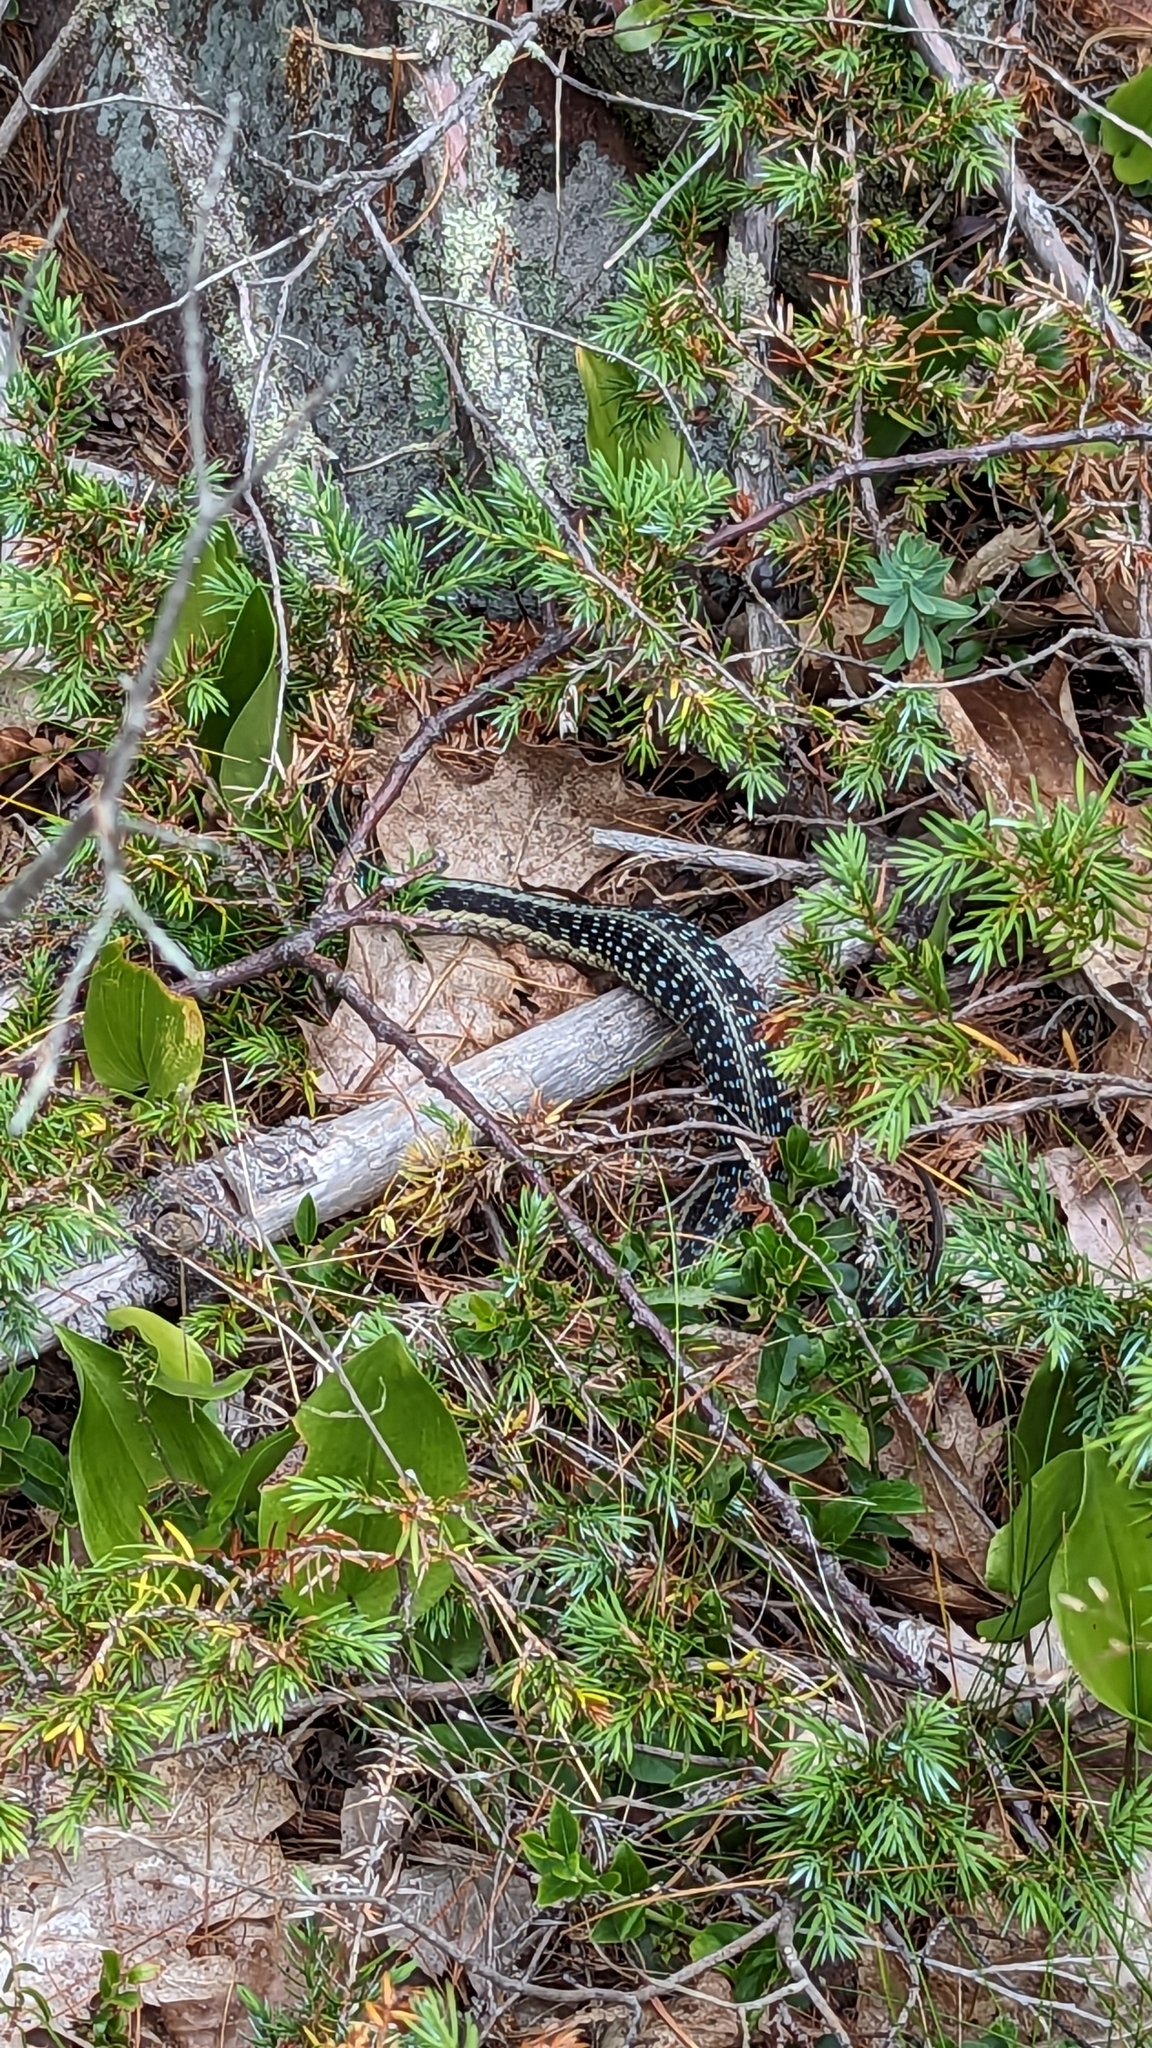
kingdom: Animalia
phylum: Chordata
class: Squamata
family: Colubridae
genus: Thamnophis
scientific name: Thamnophis sirtalis
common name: Common garter snake
